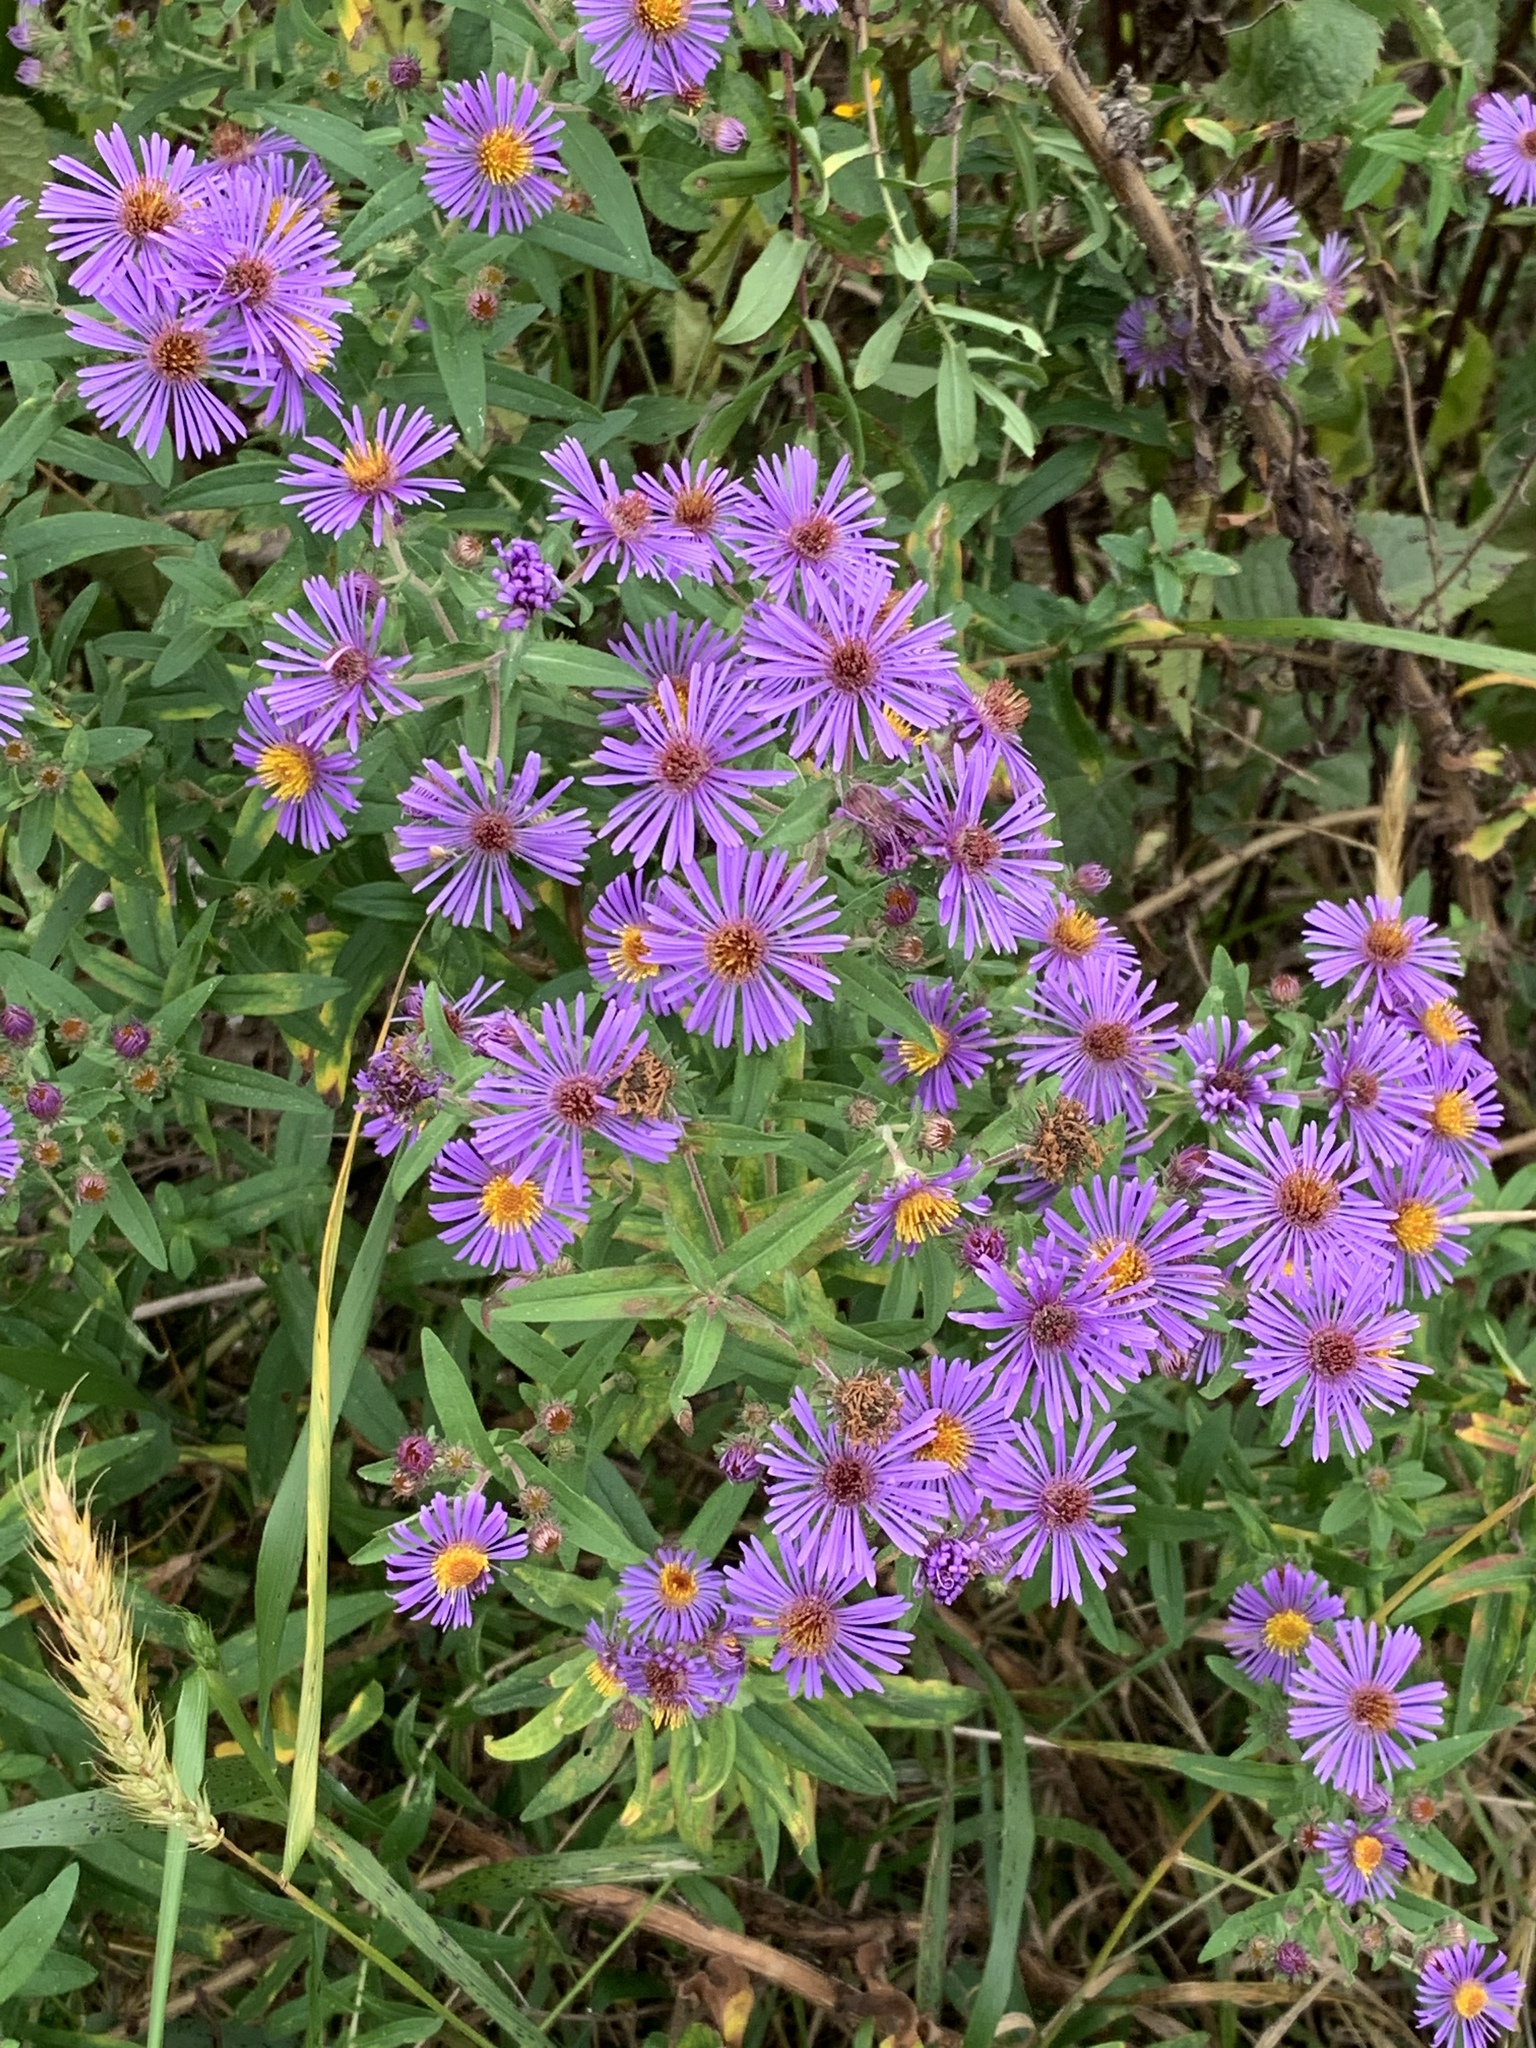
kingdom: Plantae
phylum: Tracheophyta
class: Magnoliopsida
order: Asterales
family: Asteraceae
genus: Symphyotrichum
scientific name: Symphyotrichum novae-angliae
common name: Michaelmas daisy
